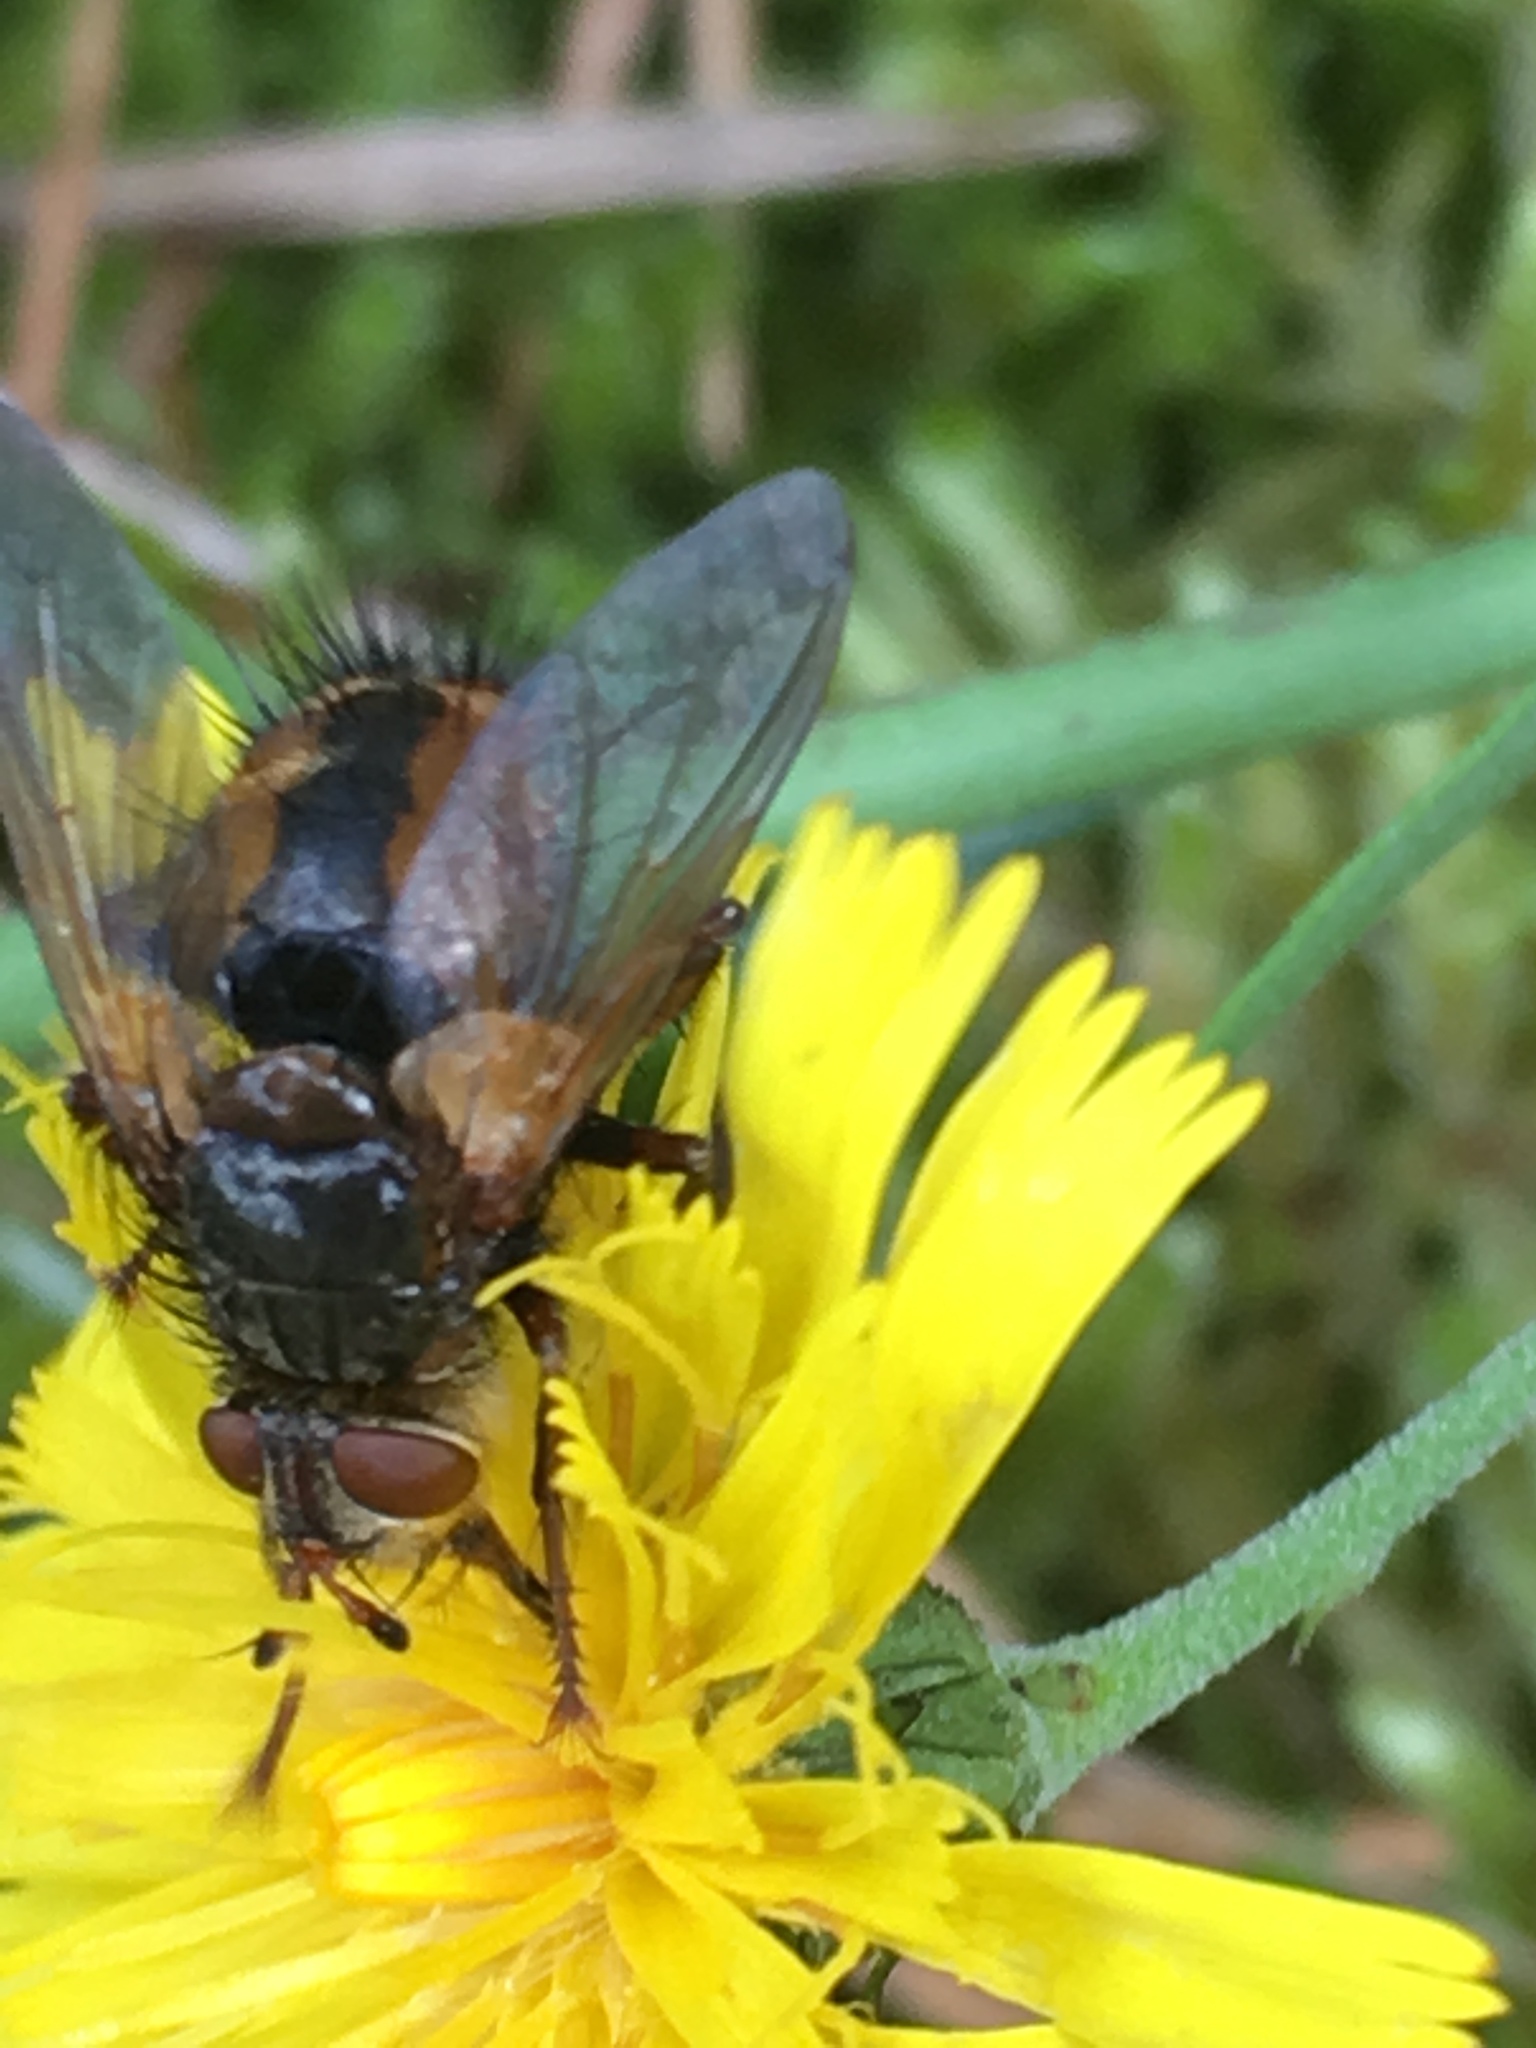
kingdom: Animalia
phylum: Arthropoda
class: Insecta
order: Diptera
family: Tachinidae
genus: Tachina
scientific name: Tachina fera
